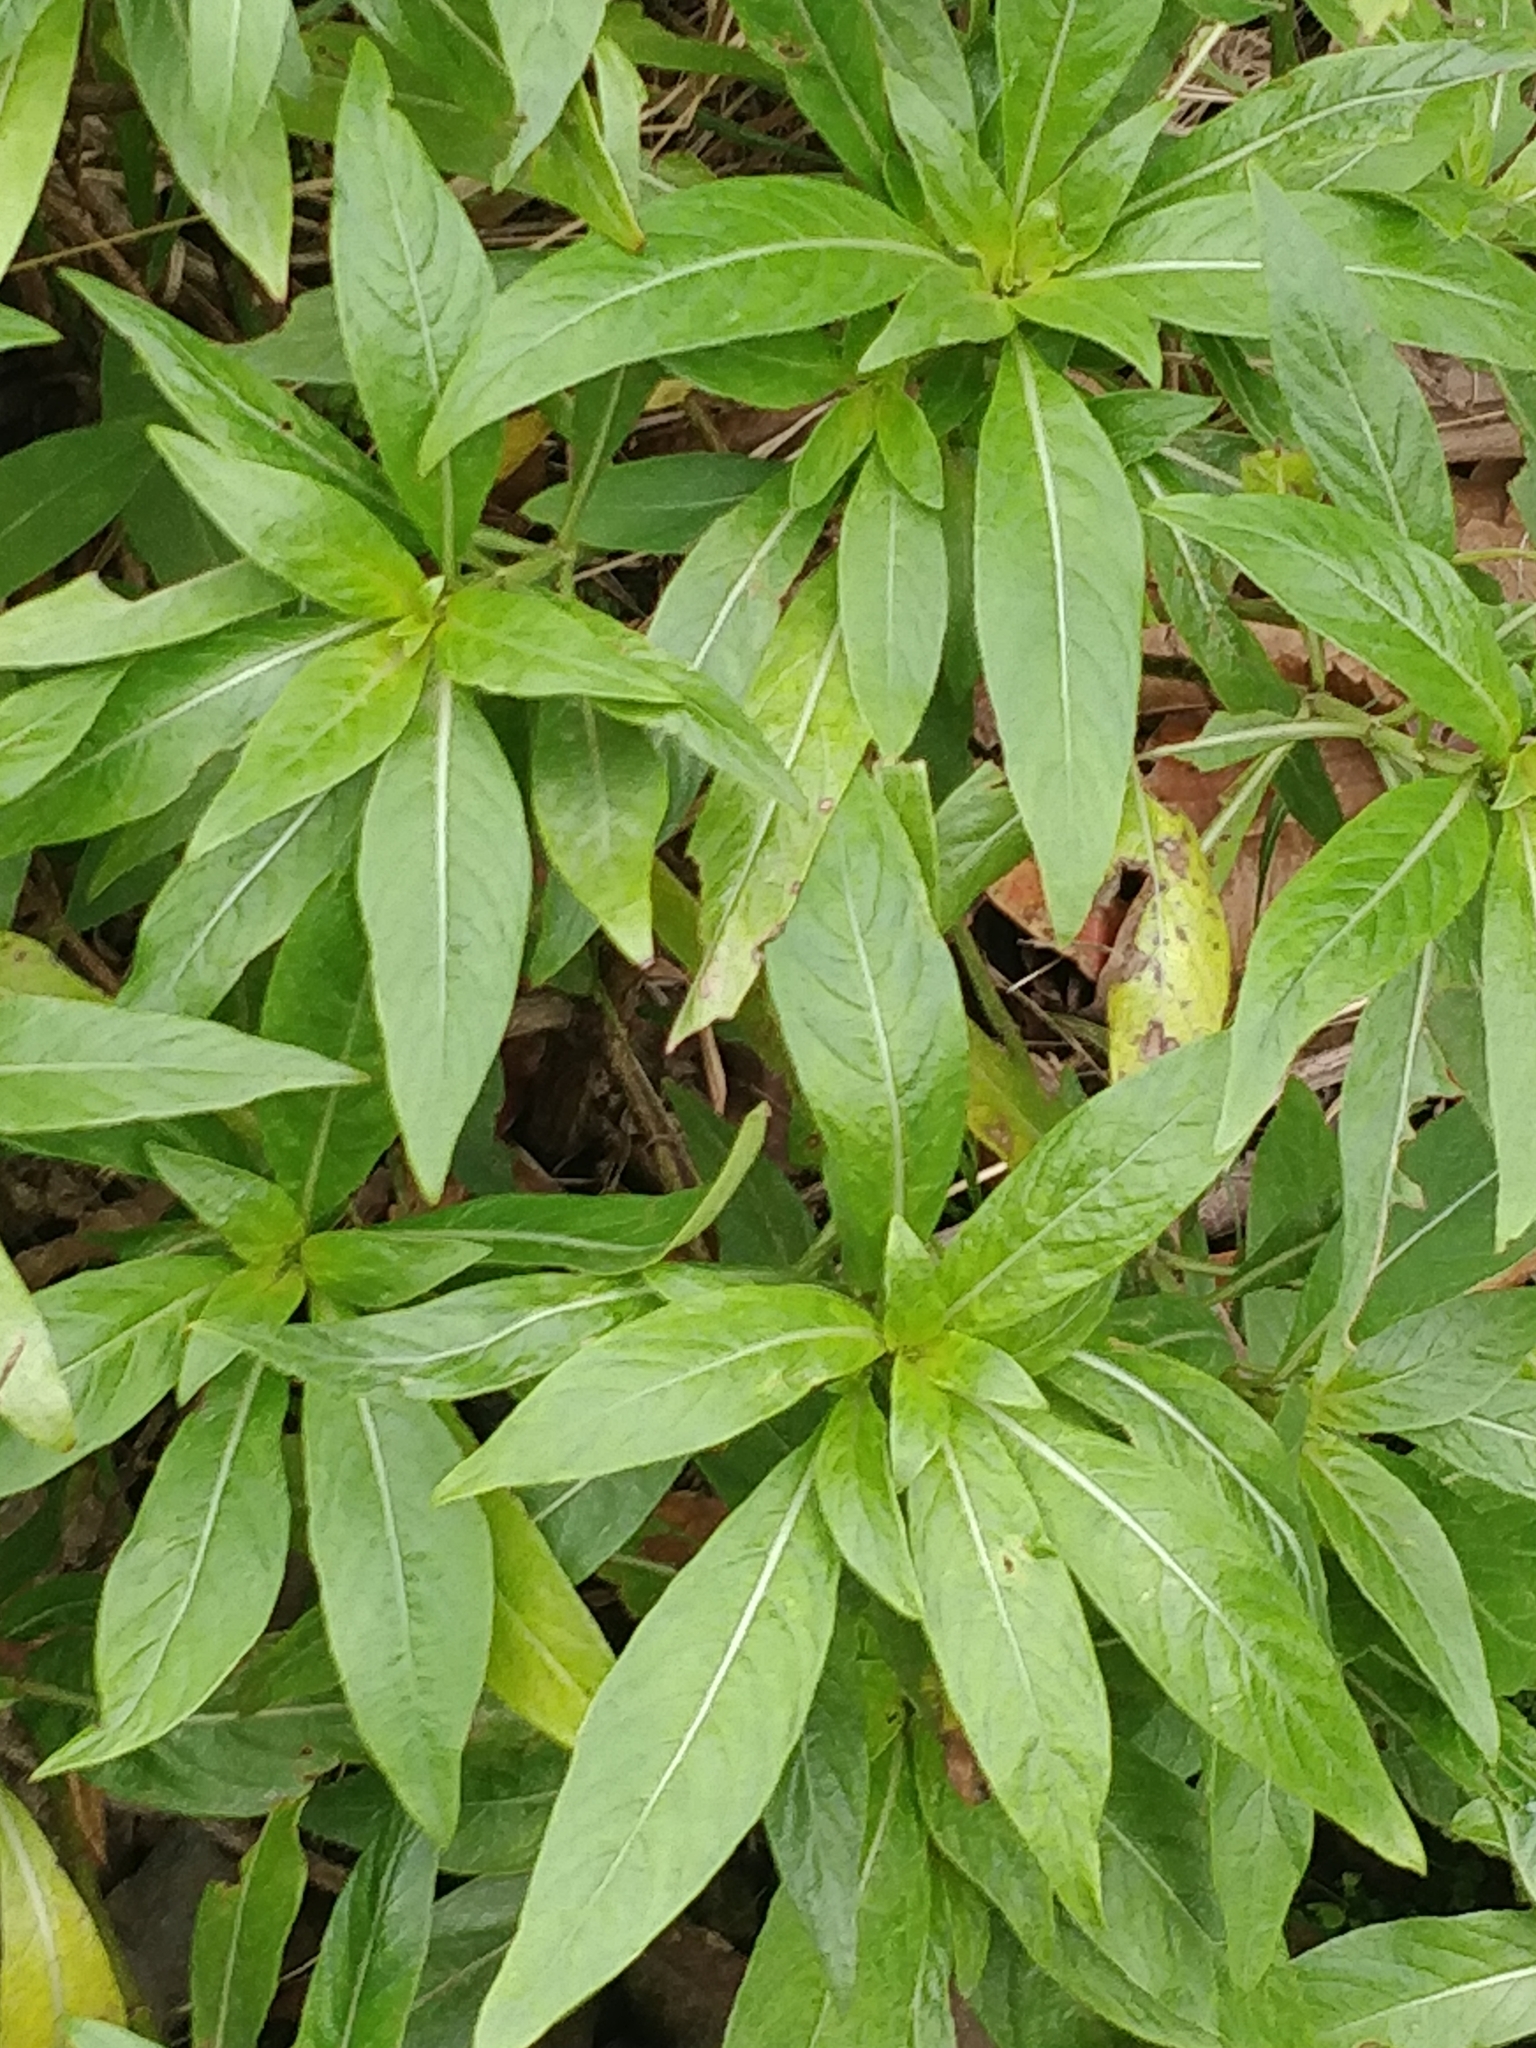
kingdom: Plantae
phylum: Tracheophyta
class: Magnoliopsida
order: Gentianales
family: Rubiaceae
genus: Phyllis
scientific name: Phyllis nobla
